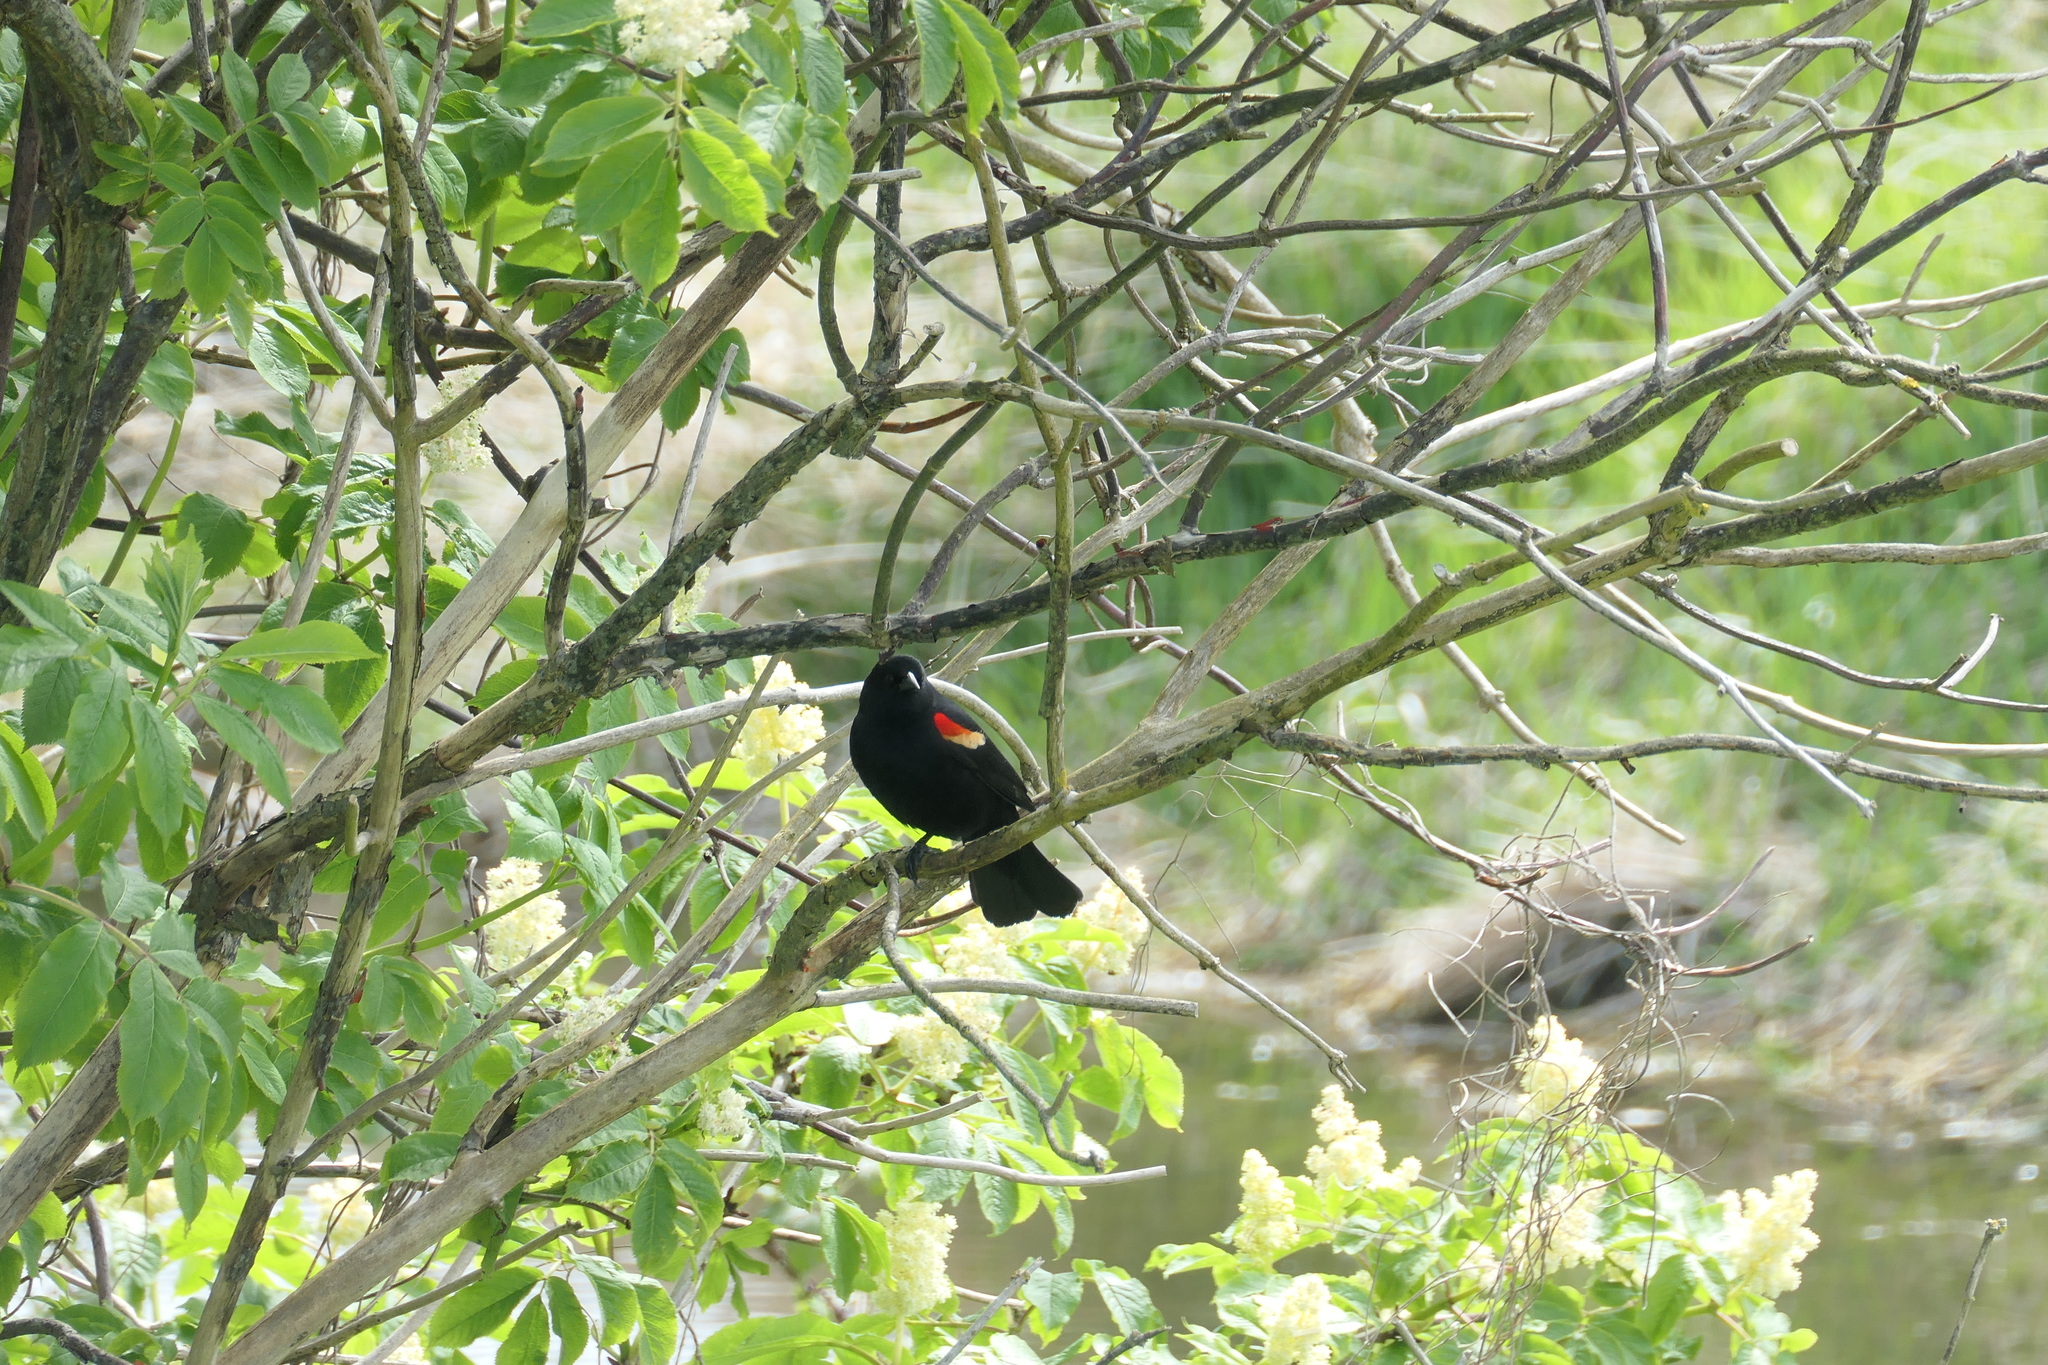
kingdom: Animalia
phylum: Chordata
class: Aves
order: Passeriformes
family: Icteridae
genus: Agelaius
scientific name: Agelaius phoeniceus
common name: Red-winged blackbird
